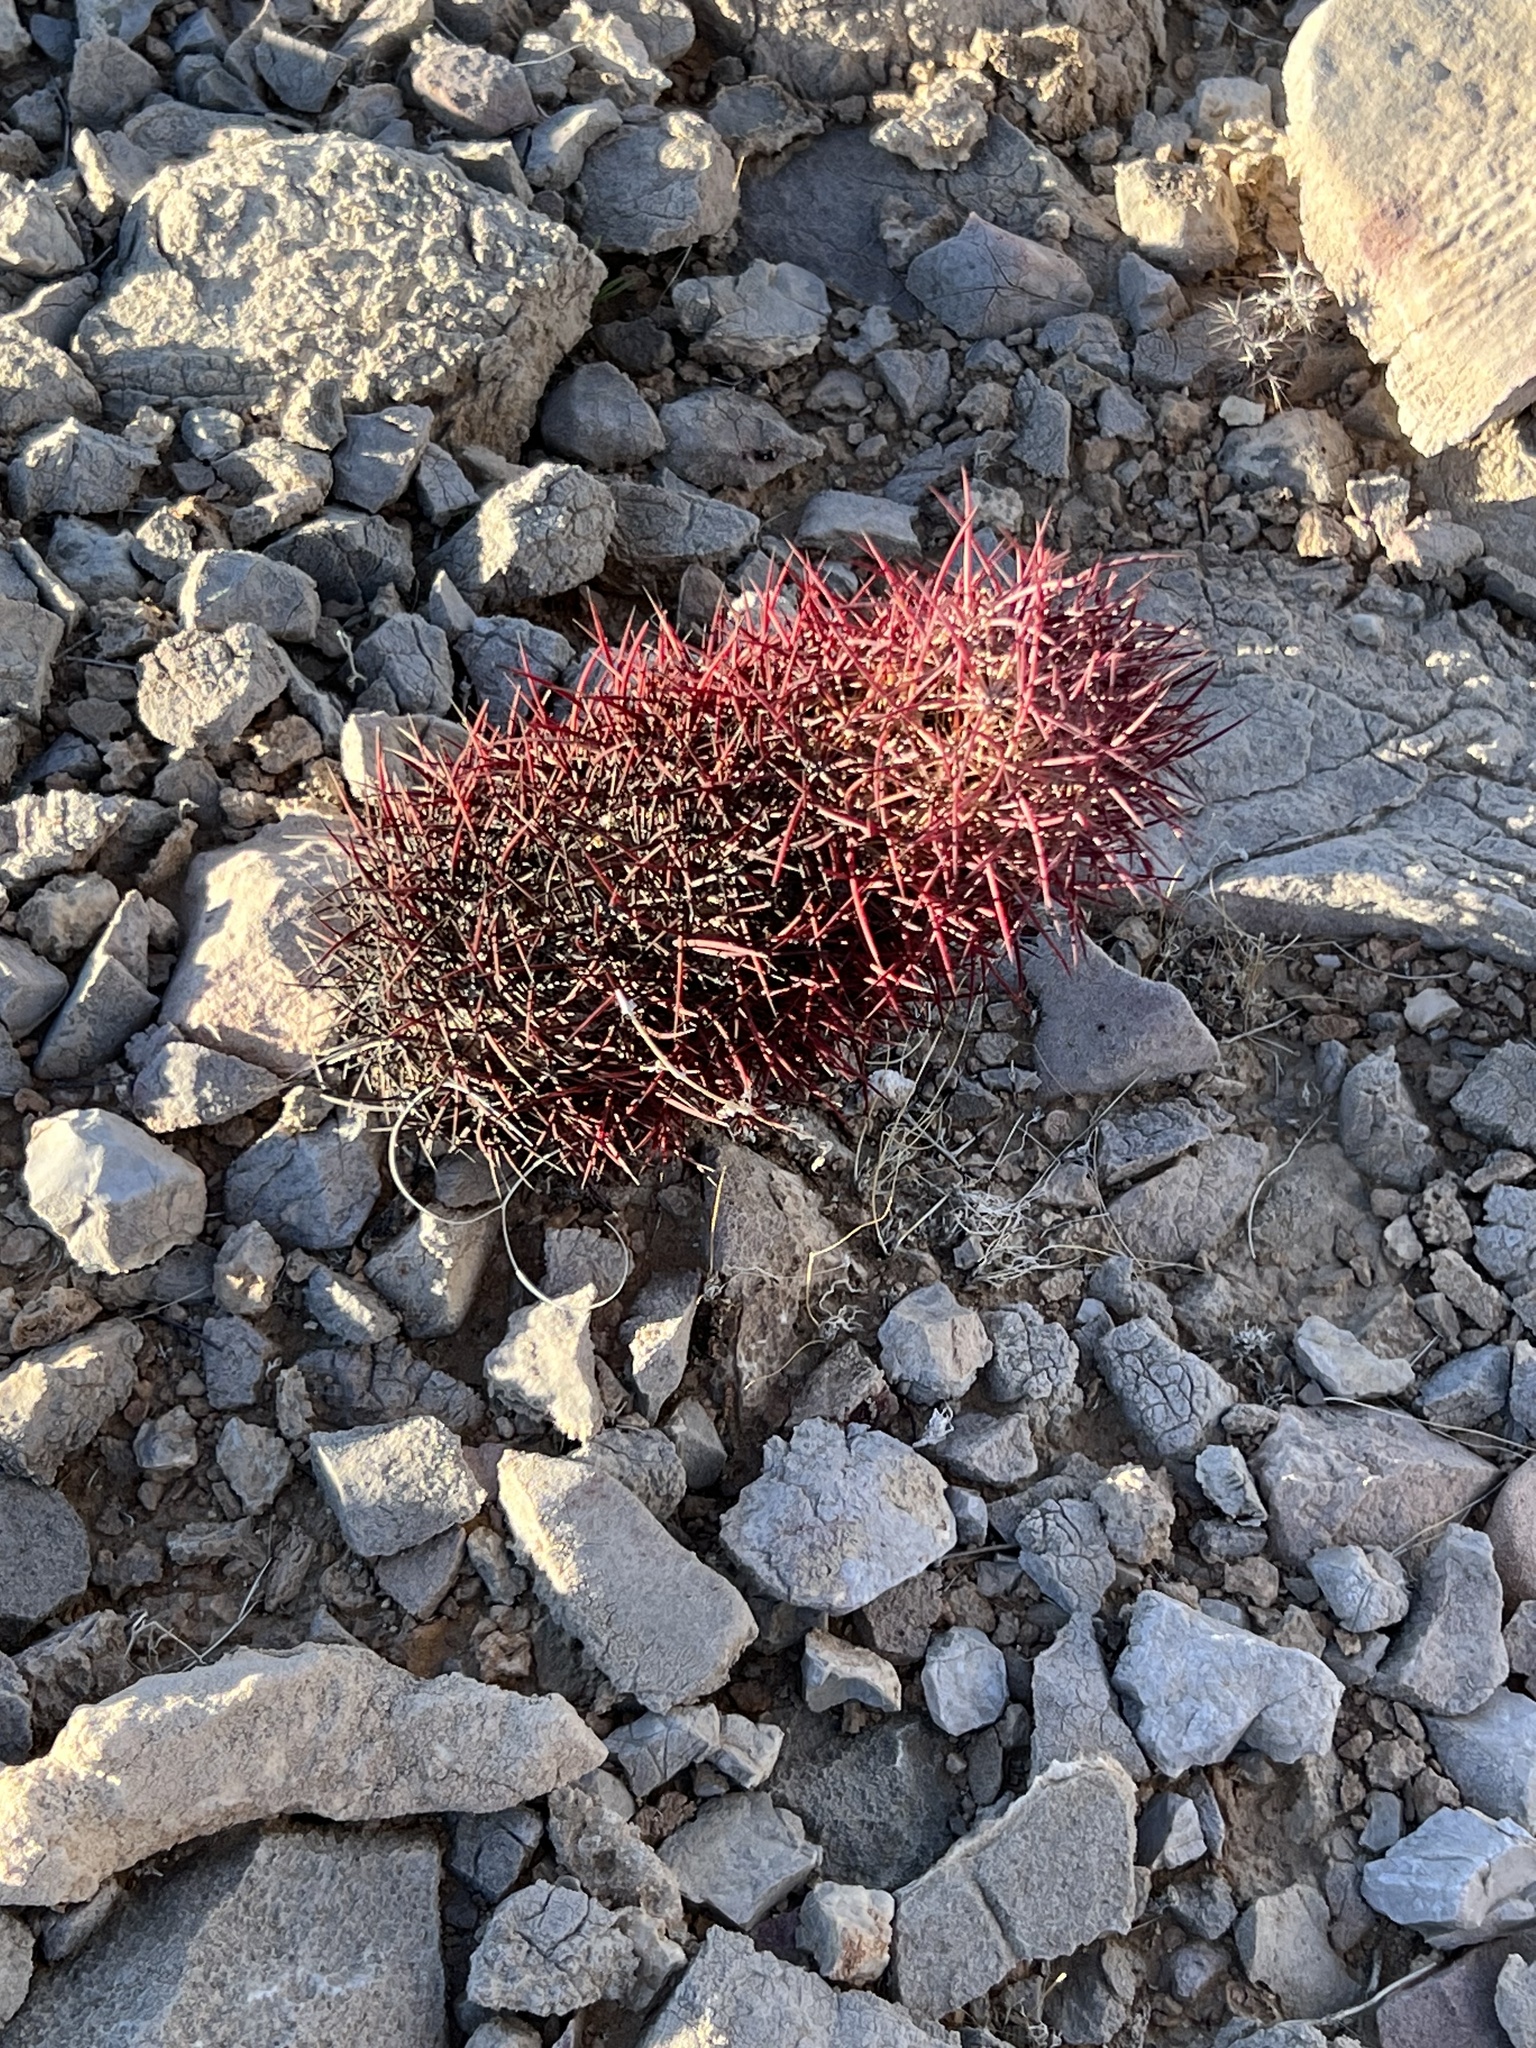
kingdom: Plantae
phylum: Tracheophyta
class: Magnoliopsida
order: Caryophyllales
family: Cactaceae
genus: Sclerocactus
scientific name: Sclerocactus johnsonii
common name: Eight-spine fishhook cactus
